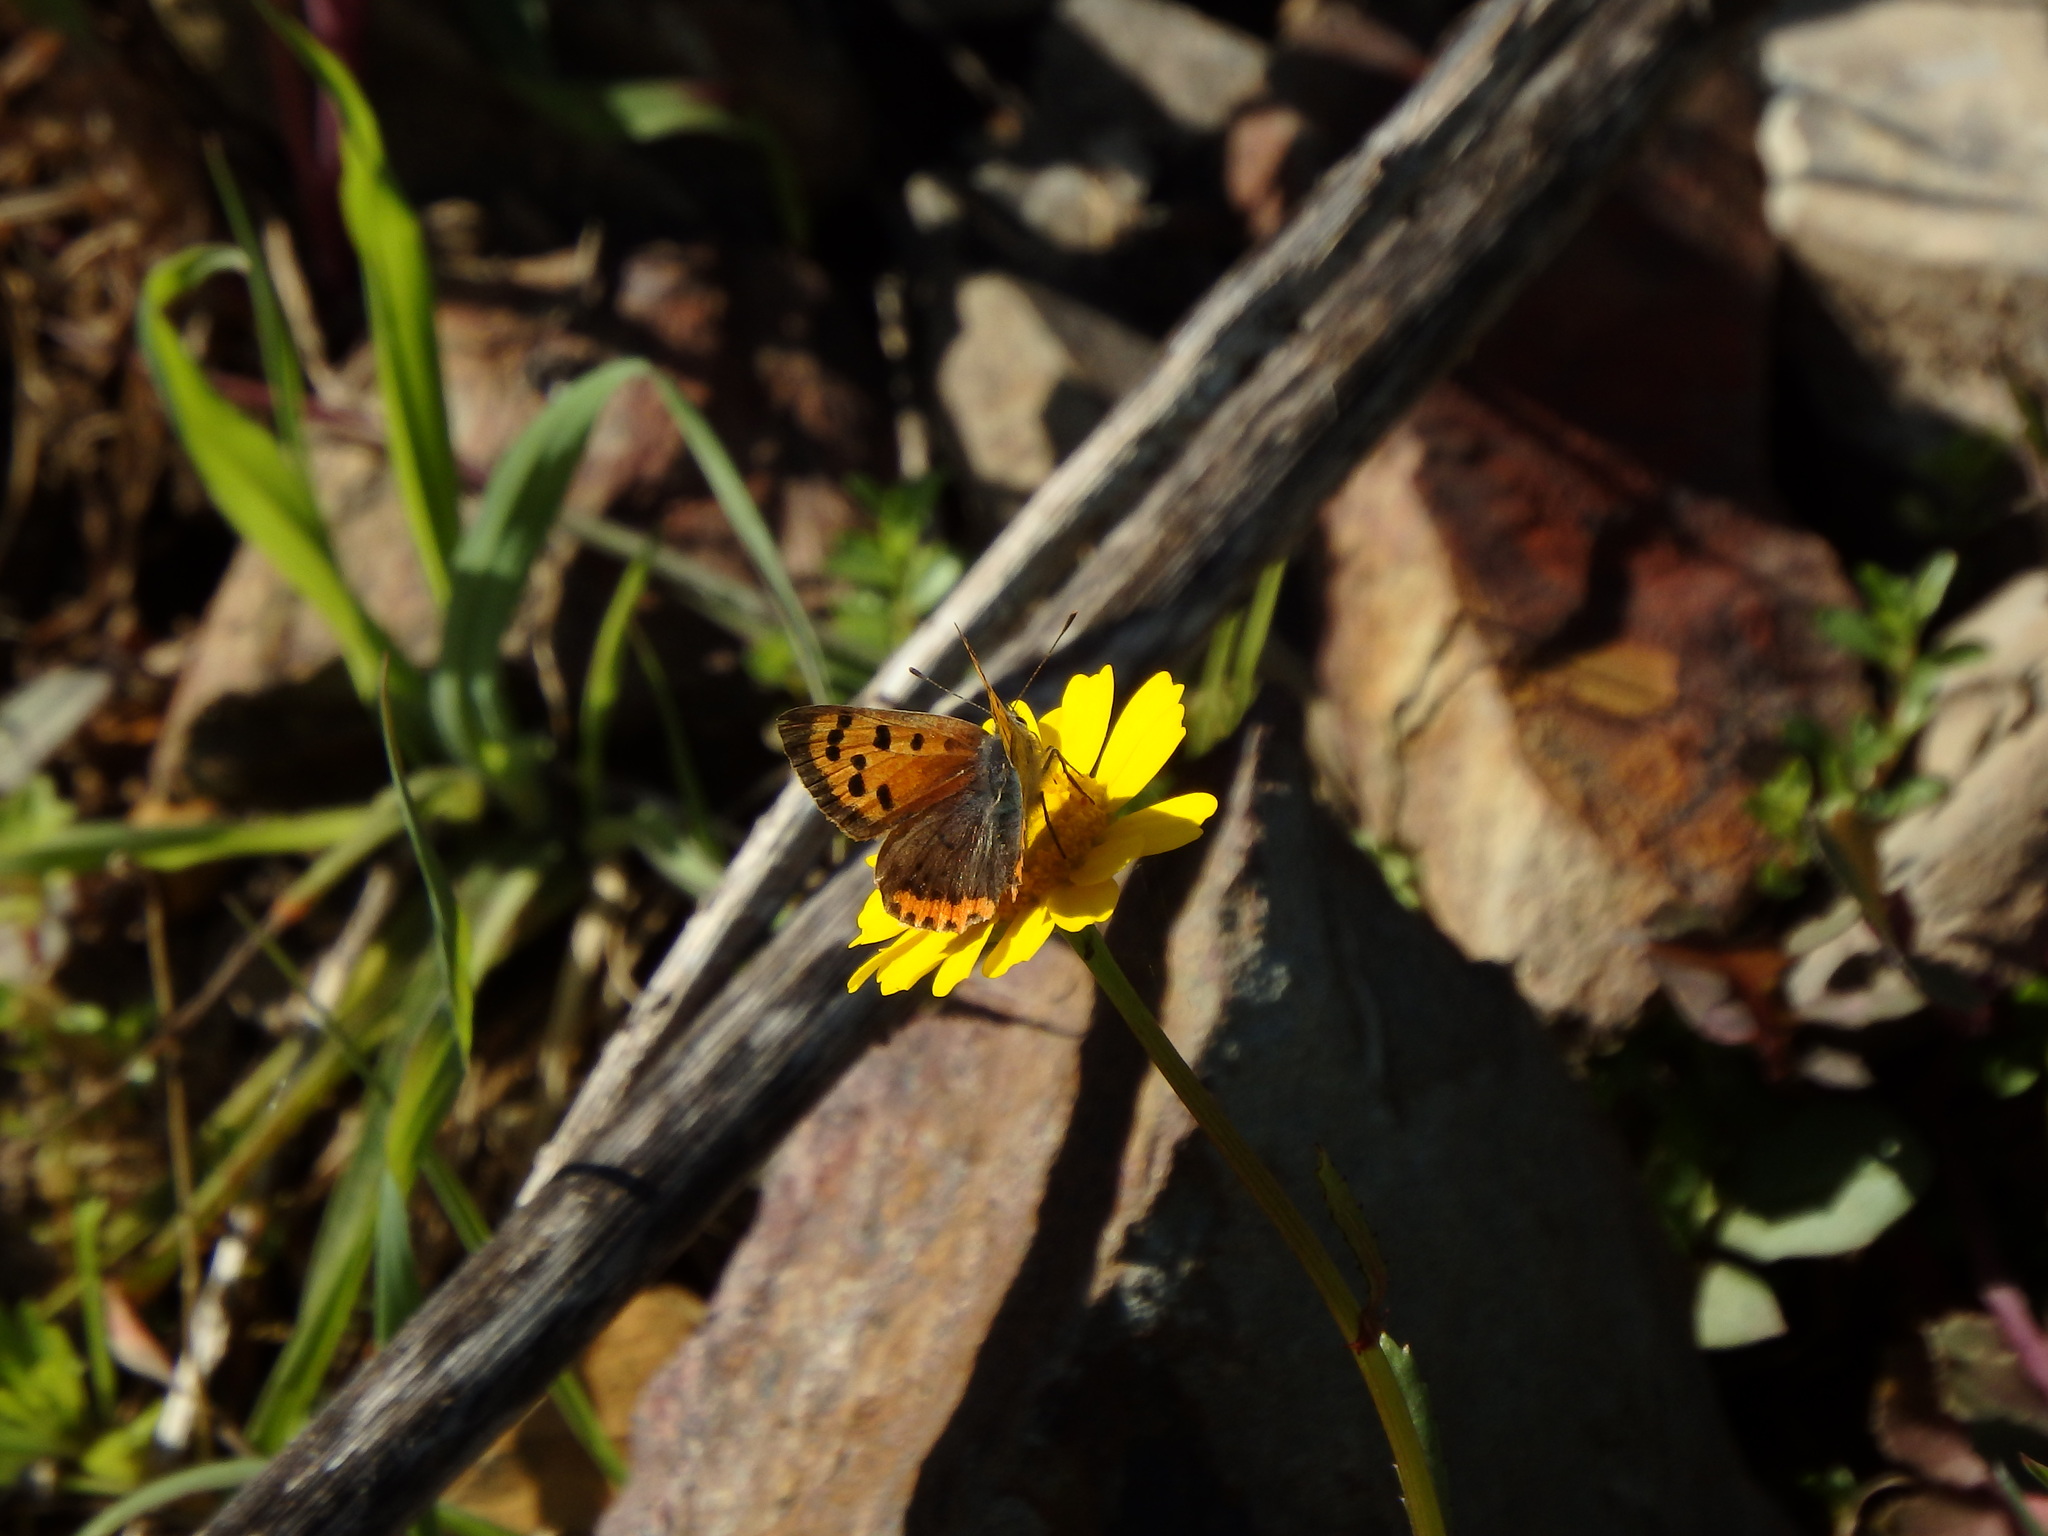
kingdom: Animalia
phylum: Arthropoda
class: Insecta
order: Lepidoptera
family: Lycaenidae
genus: Lycaena
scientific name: Lycaena phlaeas
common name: Small copper
